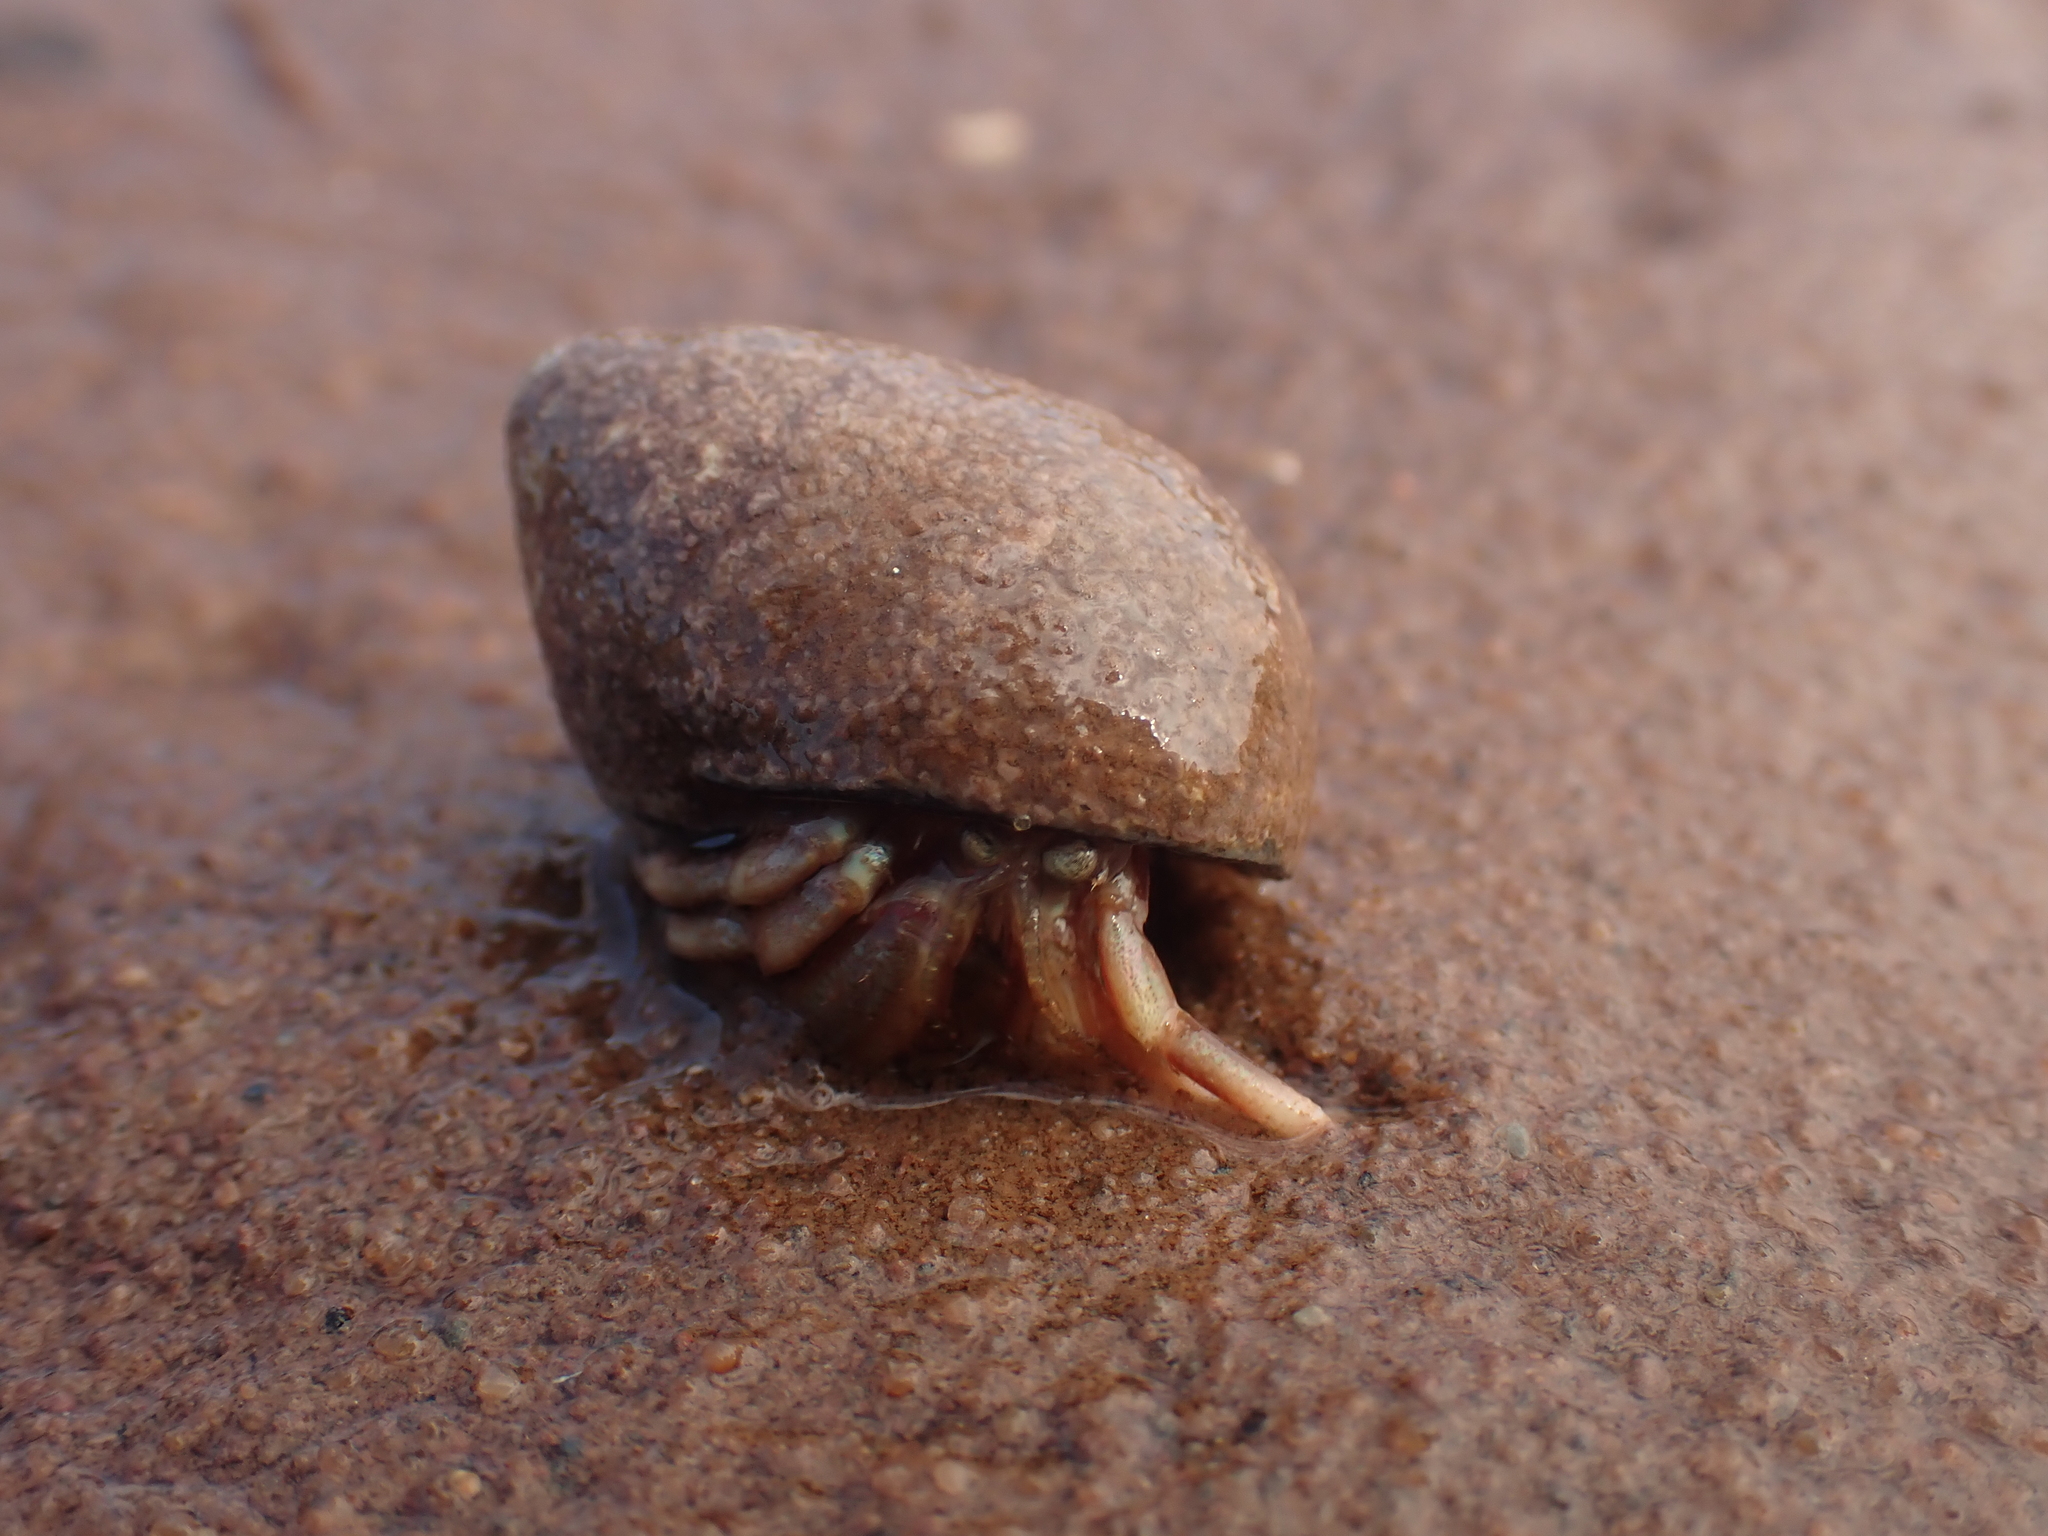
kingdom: Animalia
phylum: Arthropoda
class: Malacostraca
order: Decapoda
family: Paguridae
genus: Pagurus
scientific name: Pagurus acadianus
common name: Acadian hermit crab
